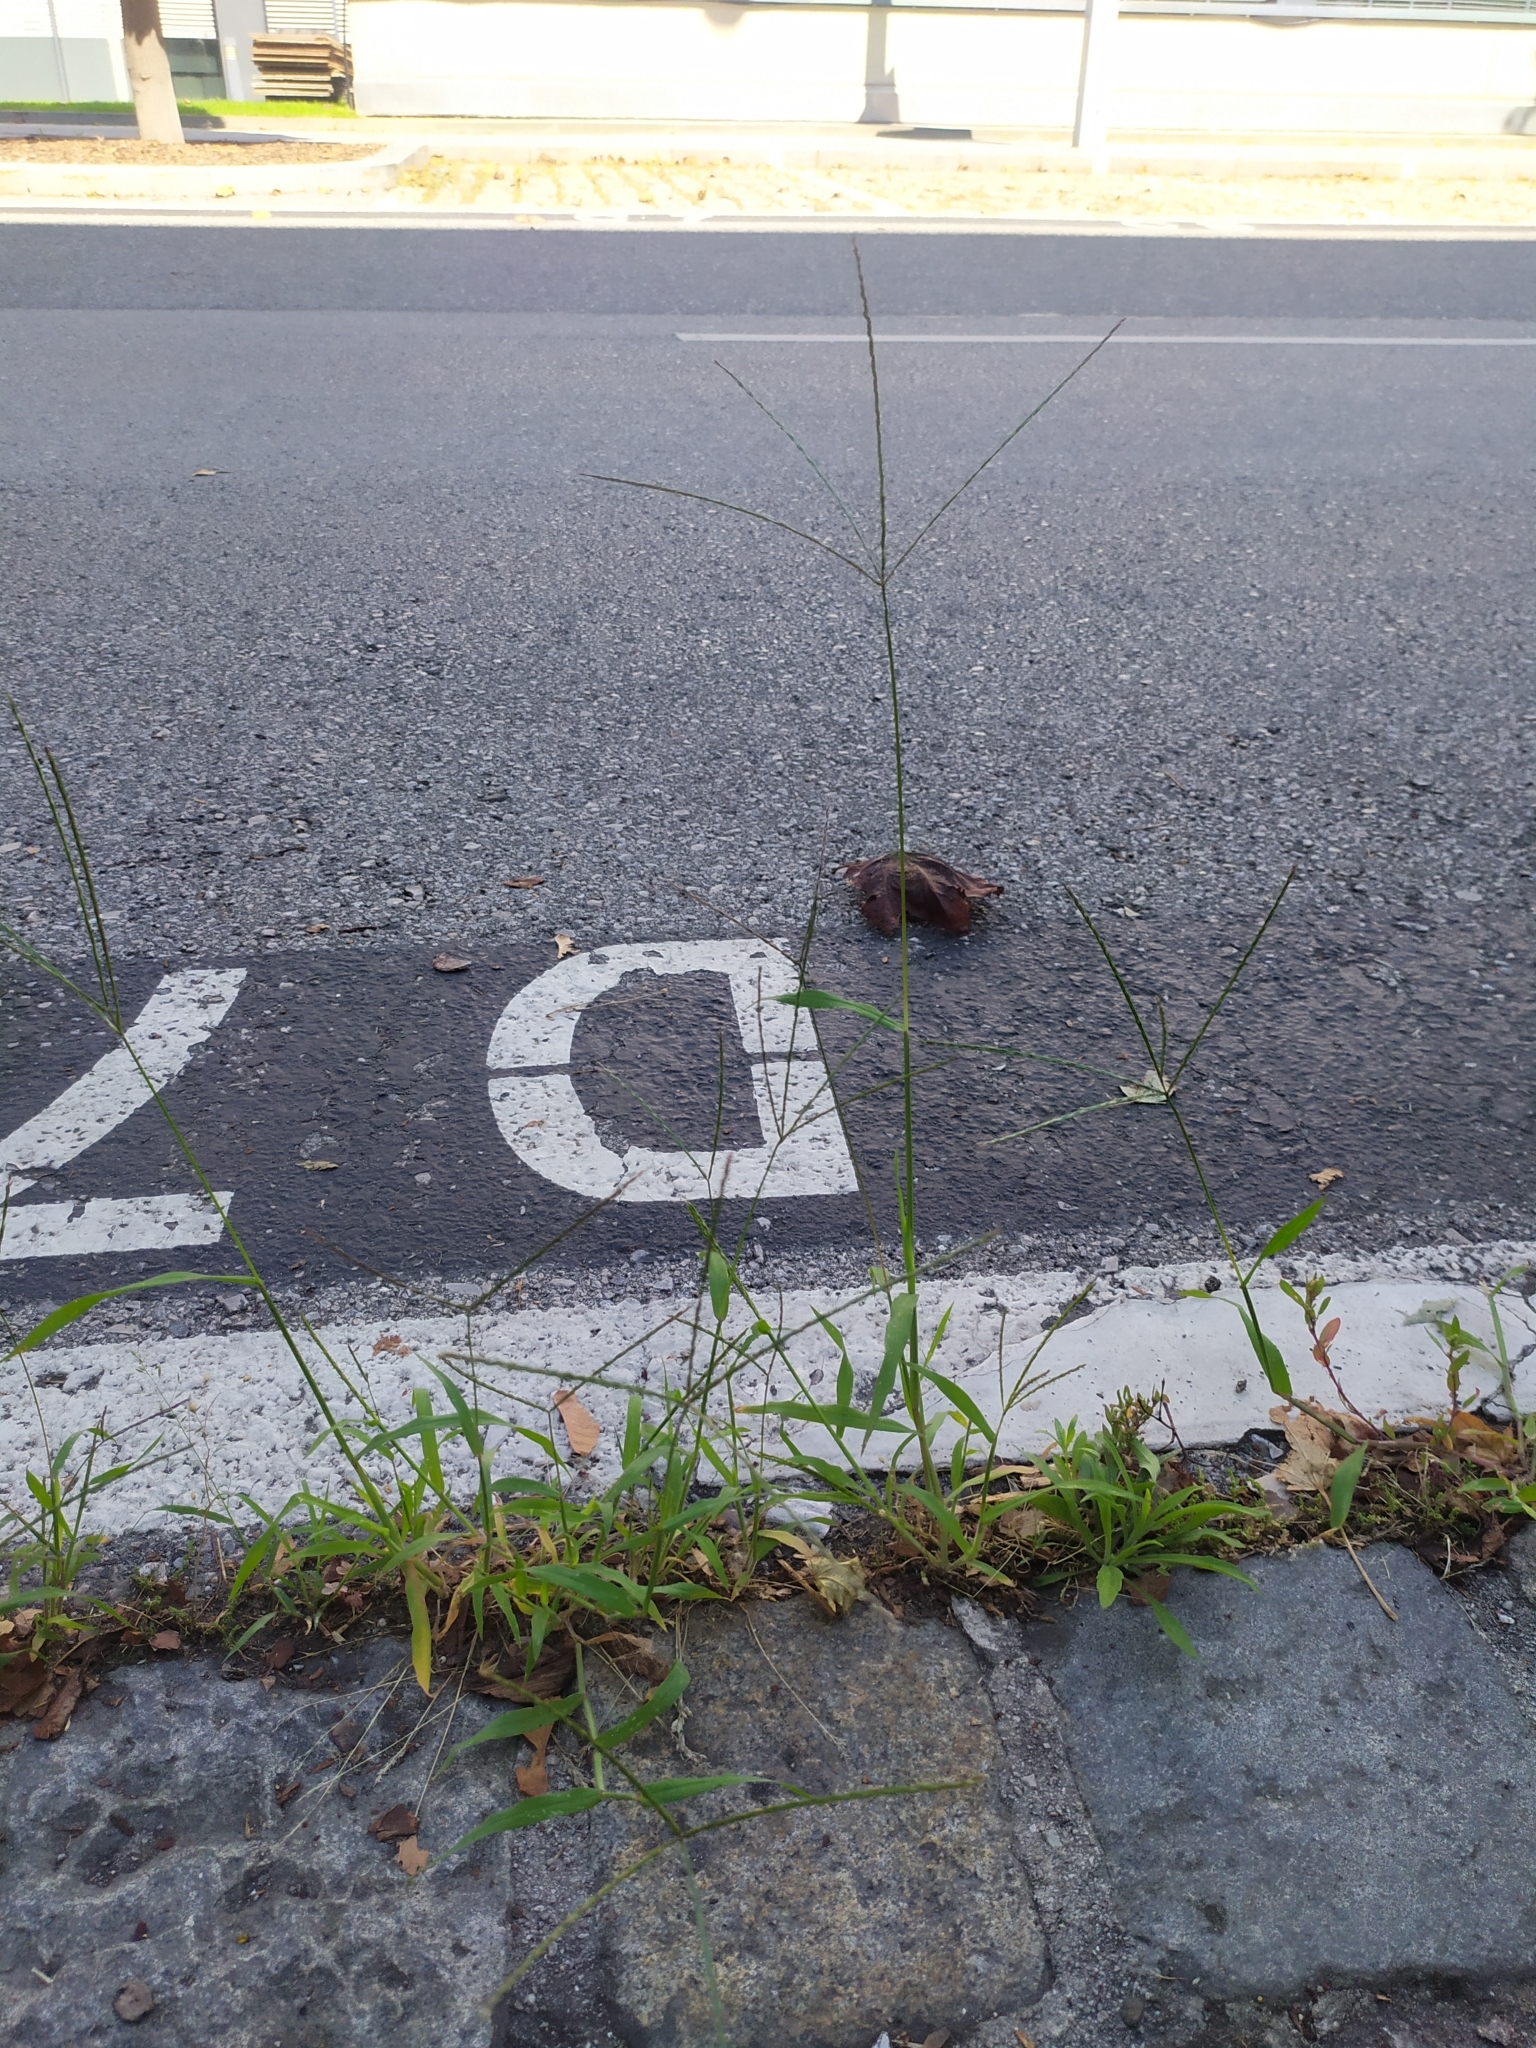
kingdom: Plantae
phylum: Tracheophyta
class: Liliopsida
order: Poales
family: Poaceae
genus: Digitaria
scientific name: Digitaria sanguinalis
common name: Hairy crabgrass
